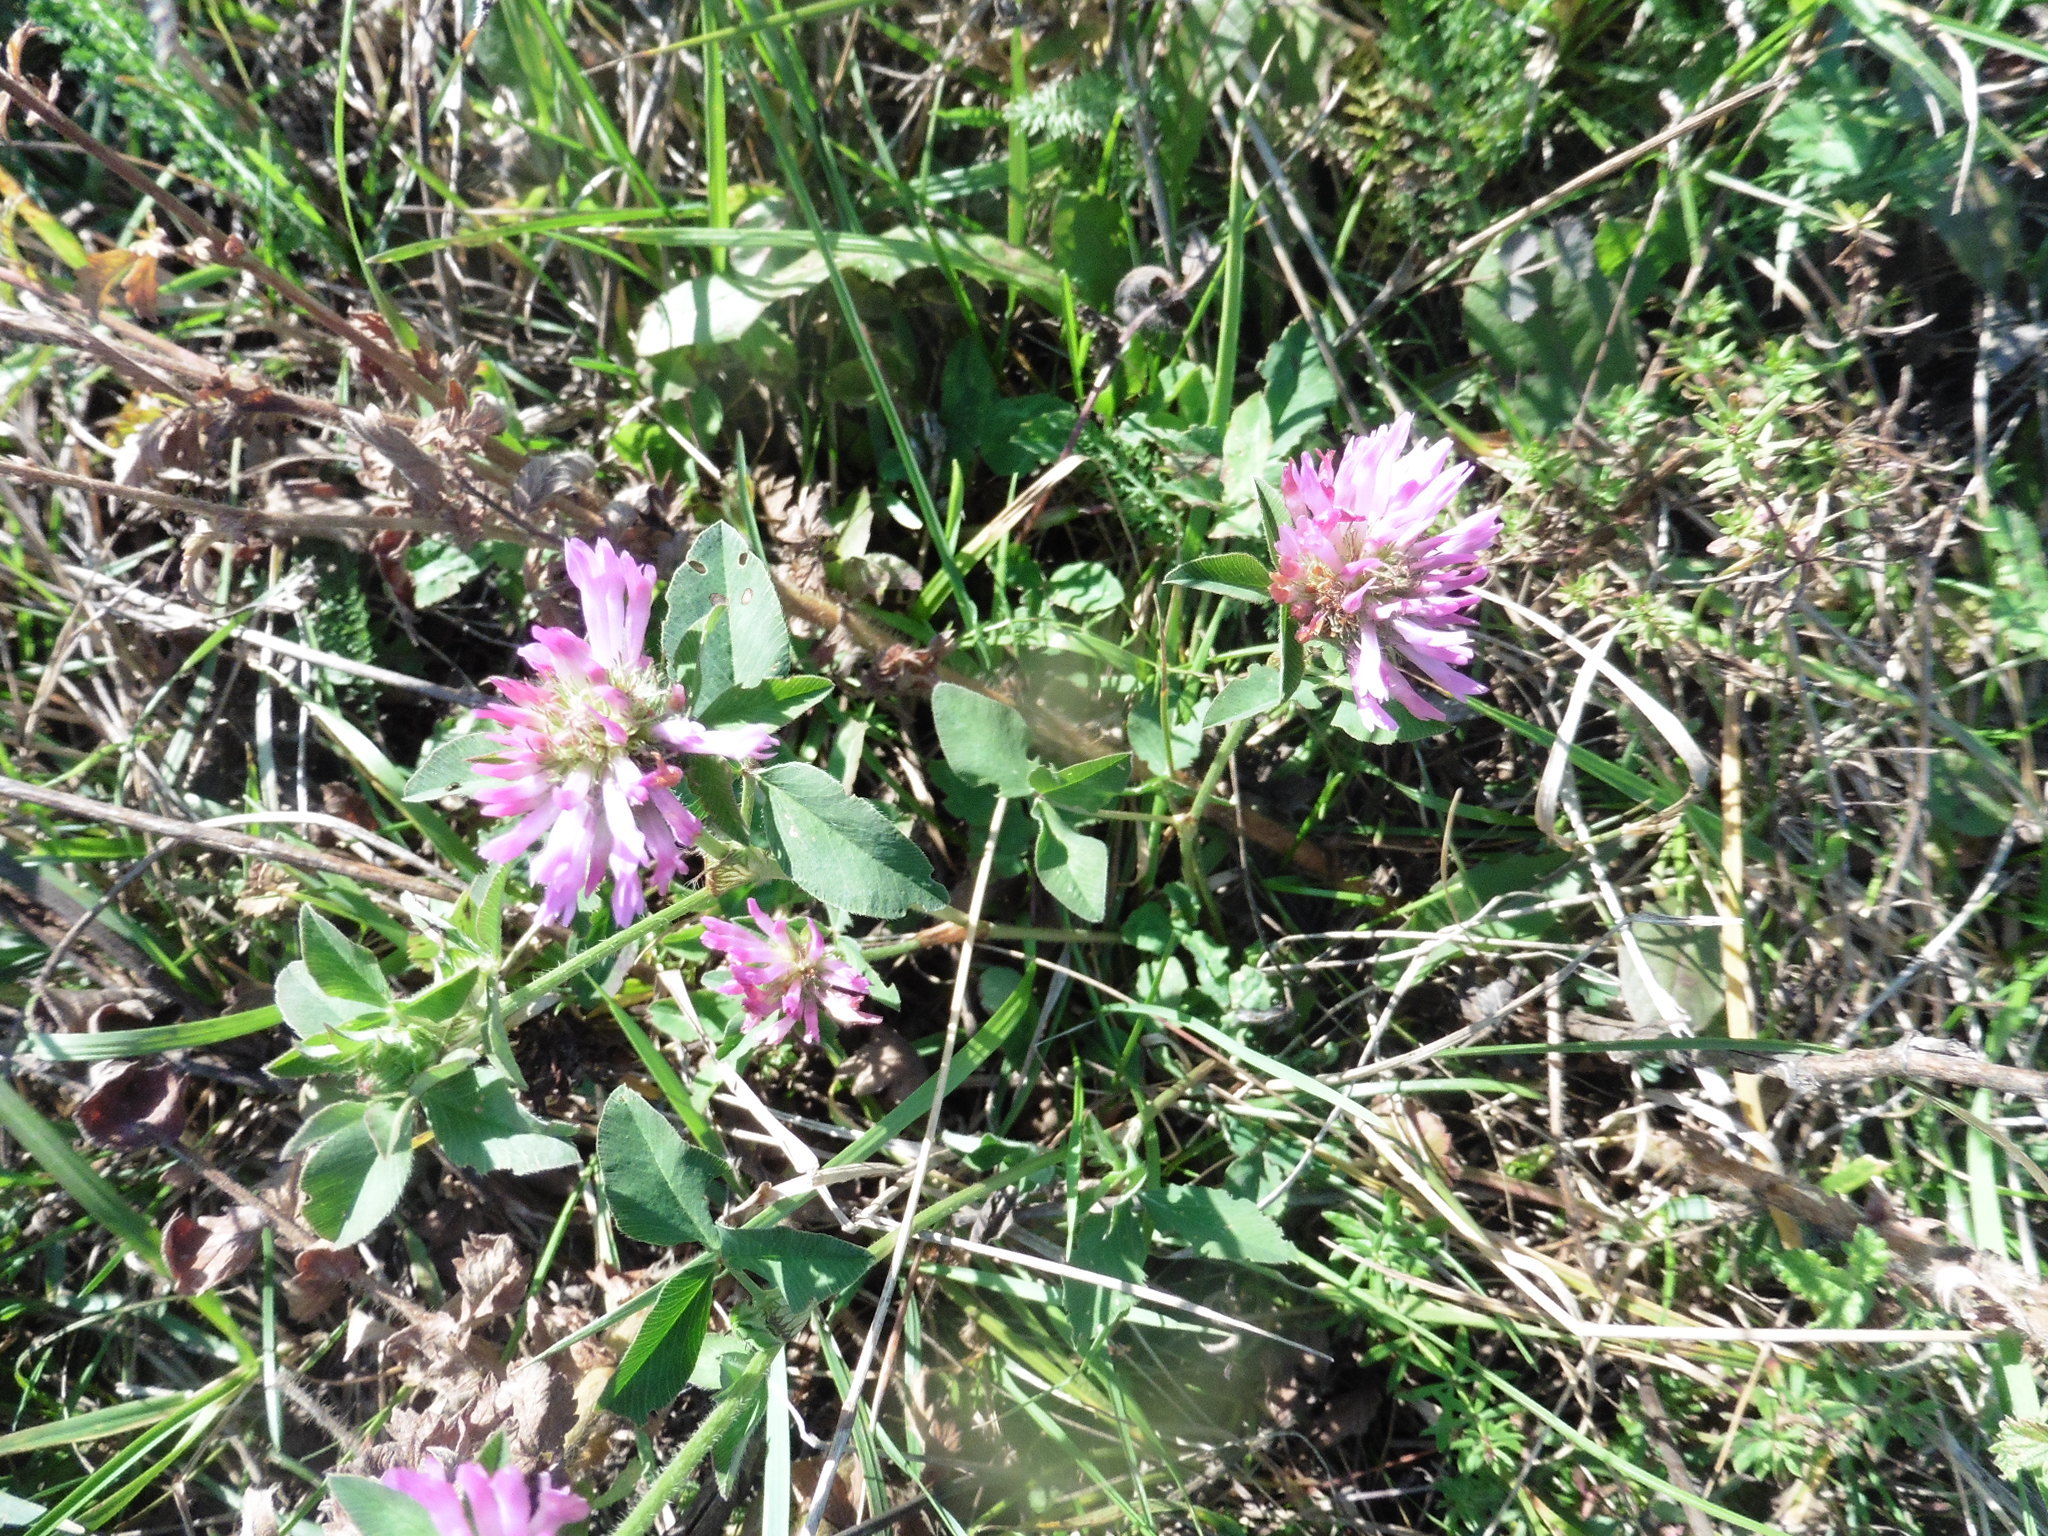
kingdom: Plantae
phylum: Tracheophyta
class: Magnoliopsida
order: Fabales
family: Fabaceae
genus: Trifolium
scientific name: Trifolium pratense
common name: Red clover
